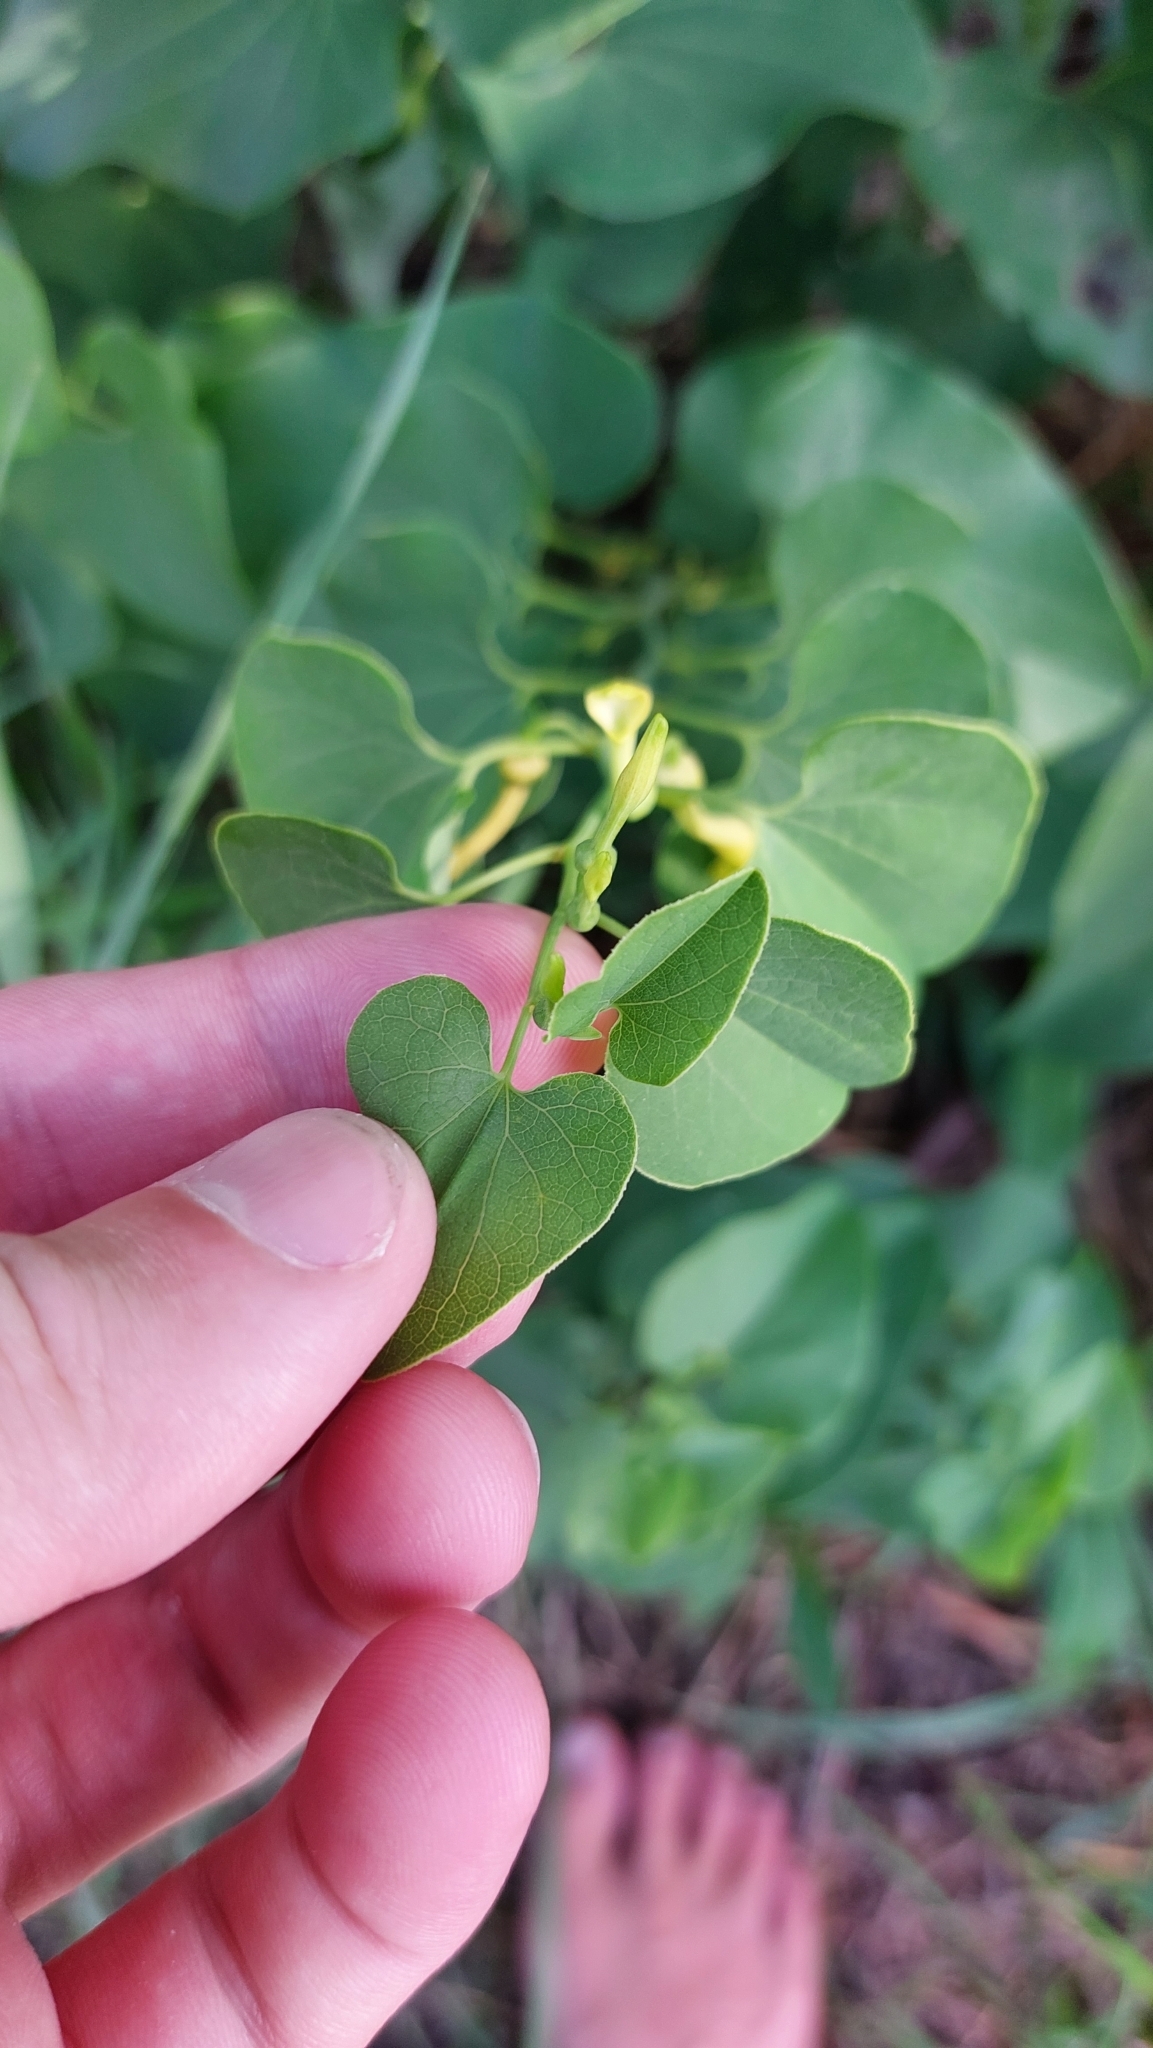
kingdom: Plantae
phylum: Tracheophyta
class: Magnoliopsida
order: Piperales
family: Aristolochiaceae
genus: Aristolochia
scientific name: Aristolochia clematitis
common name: Birthwort
